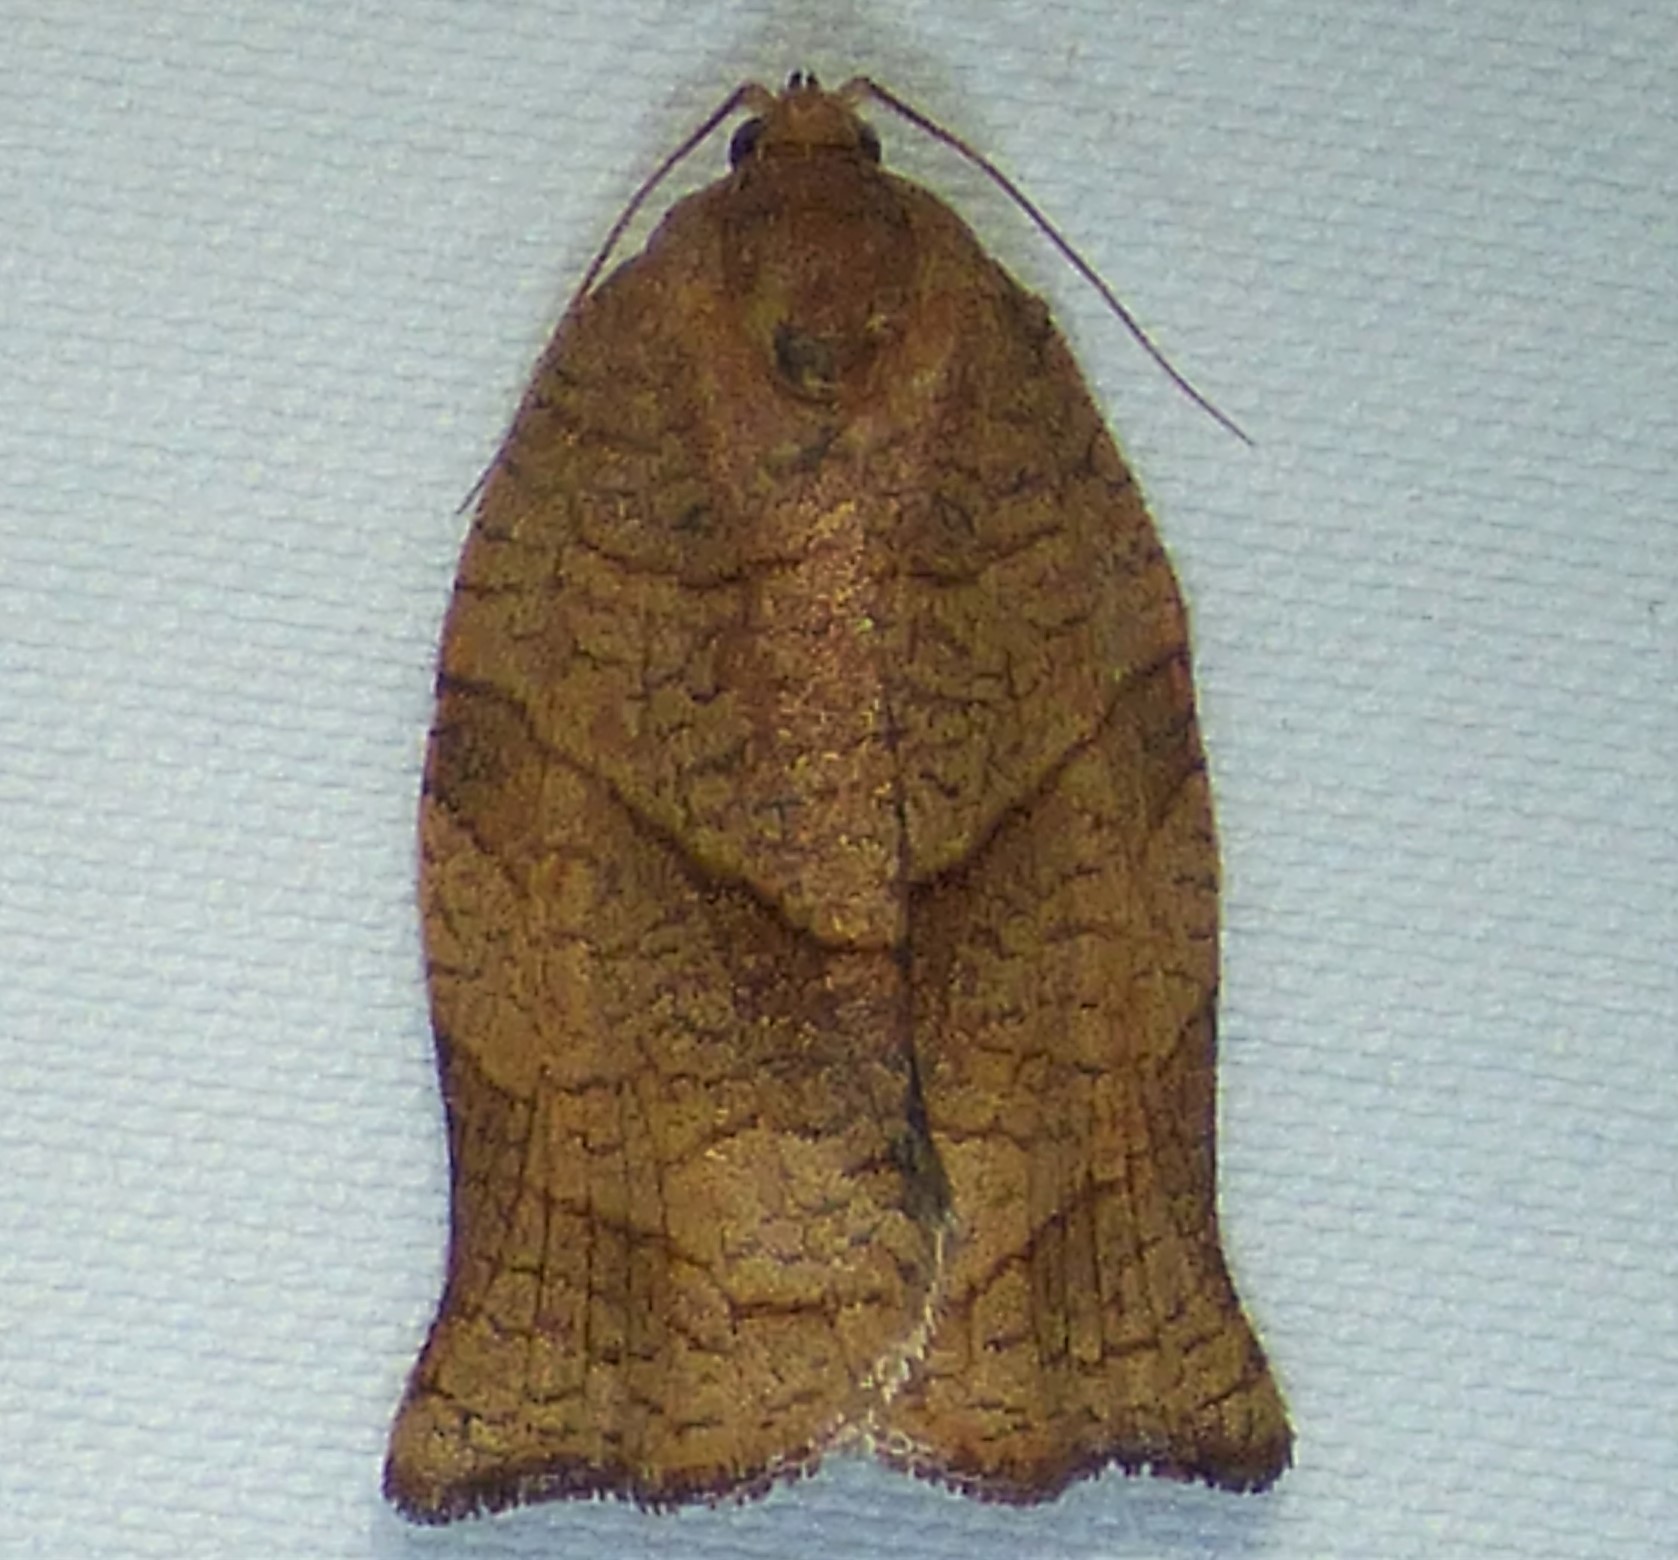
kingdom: Animalia
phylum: Arthropoda
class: Insecta
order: Lepidoptera
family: Tortricidae
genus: Choristoneura
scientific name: Choristoneura rosaceana
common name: Oblique-banded leafroller moth
